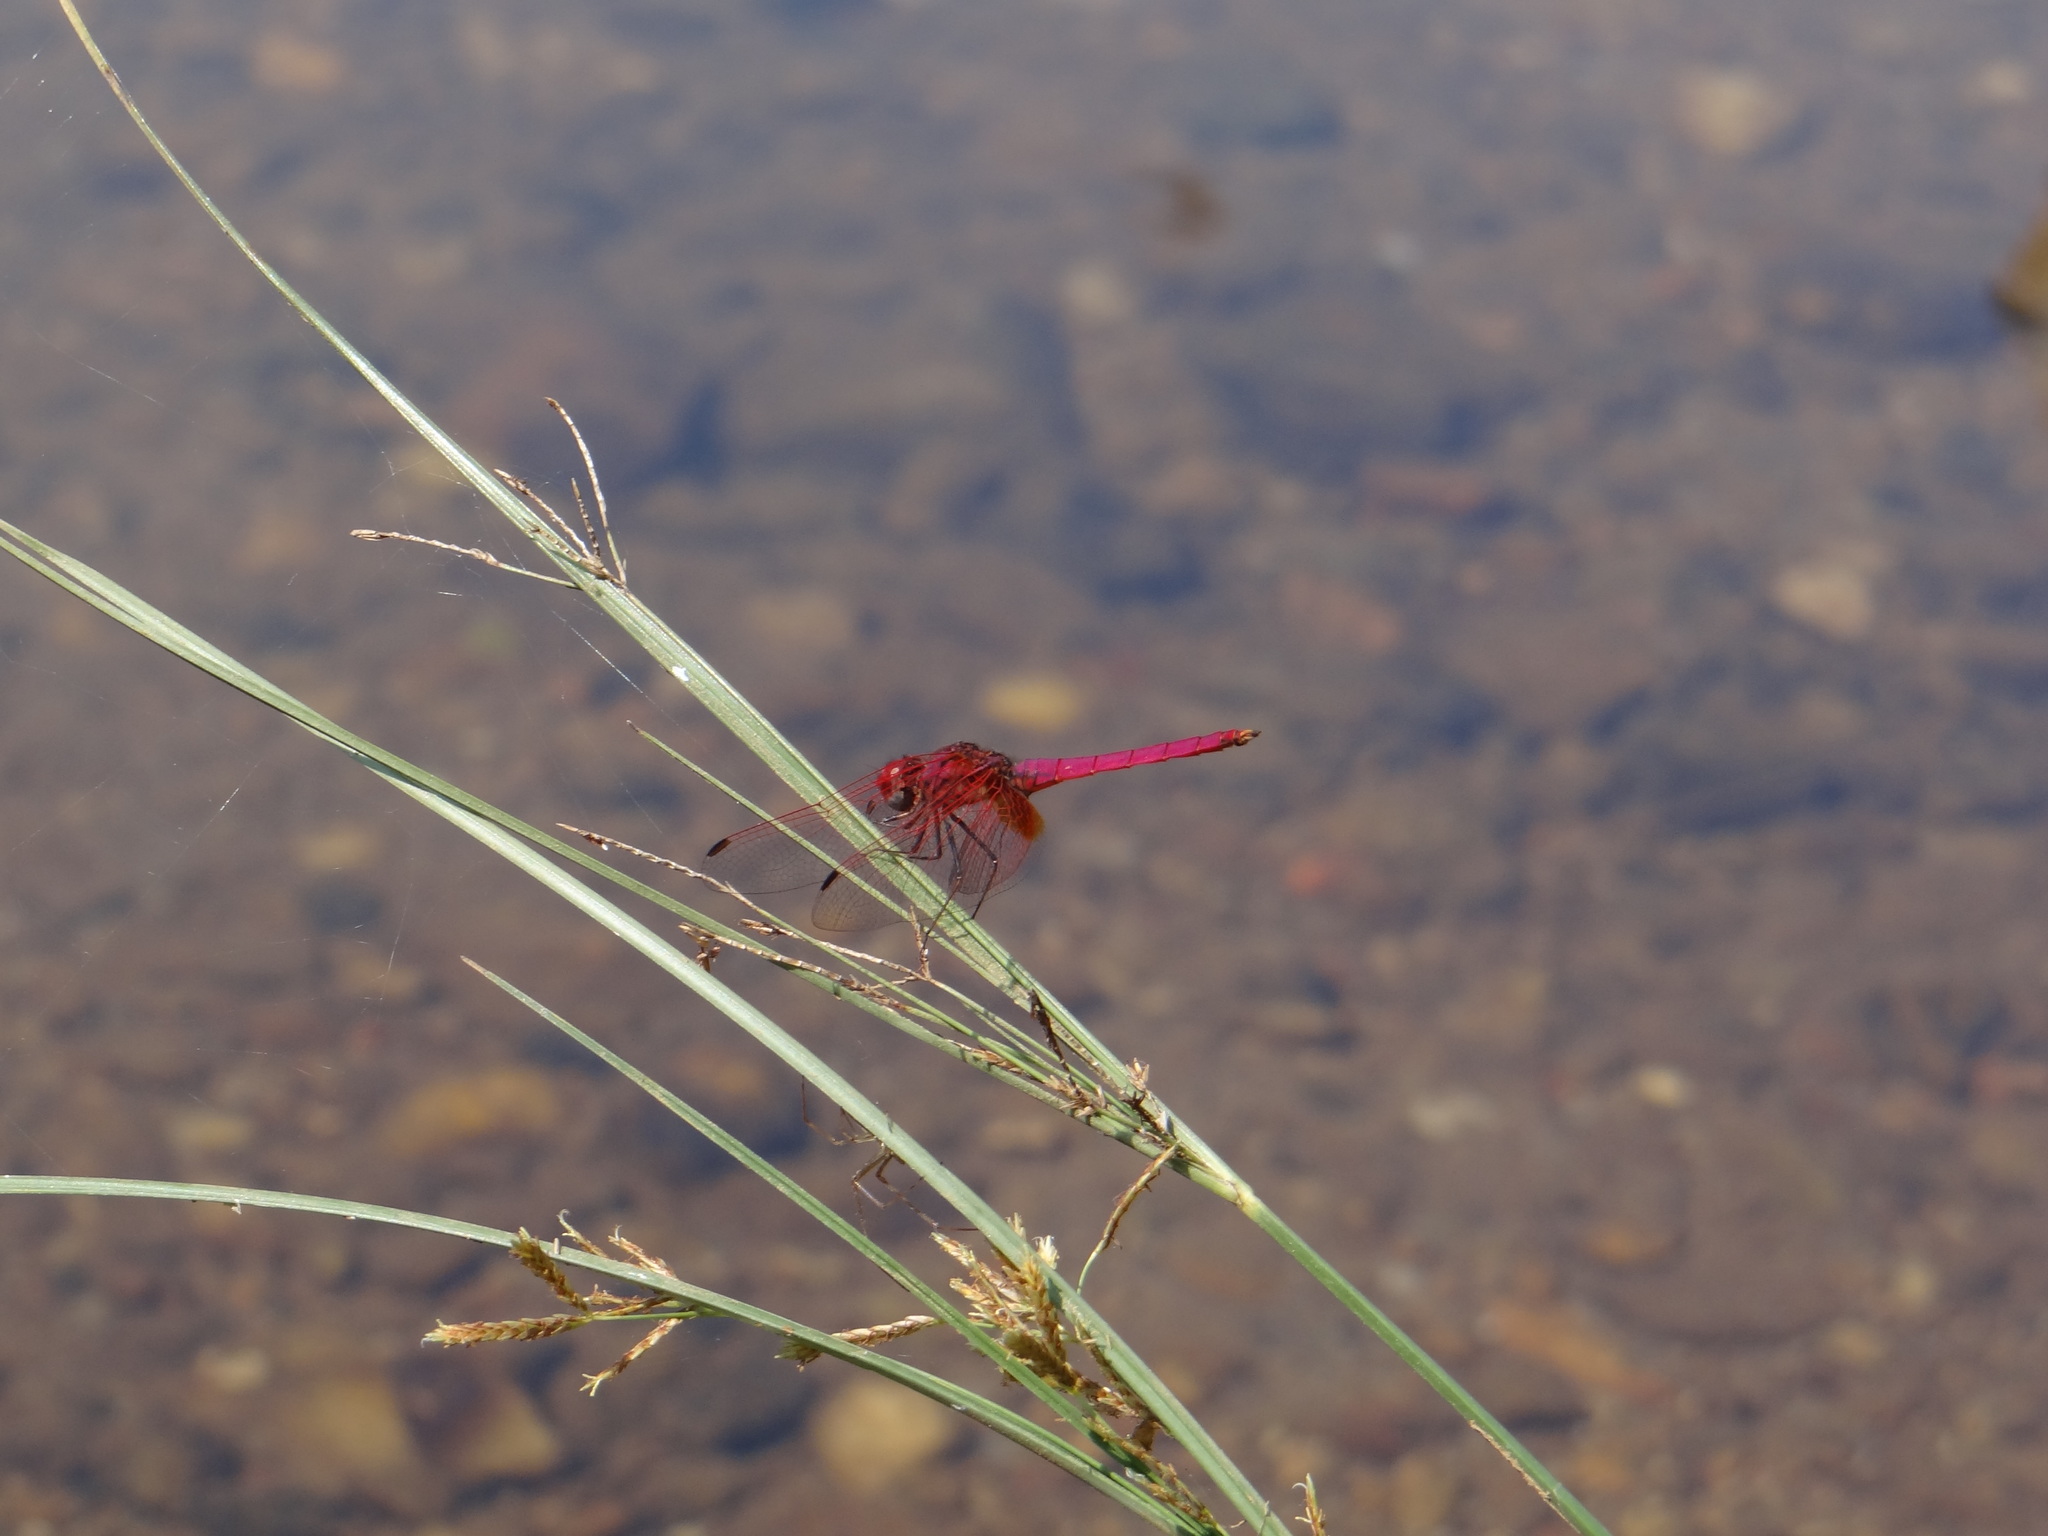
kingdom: Animalia
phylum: Arthropoda
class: Insecta
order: Odonata
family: Libellulidae
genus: Trithemis
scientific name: Trithemis aurora
